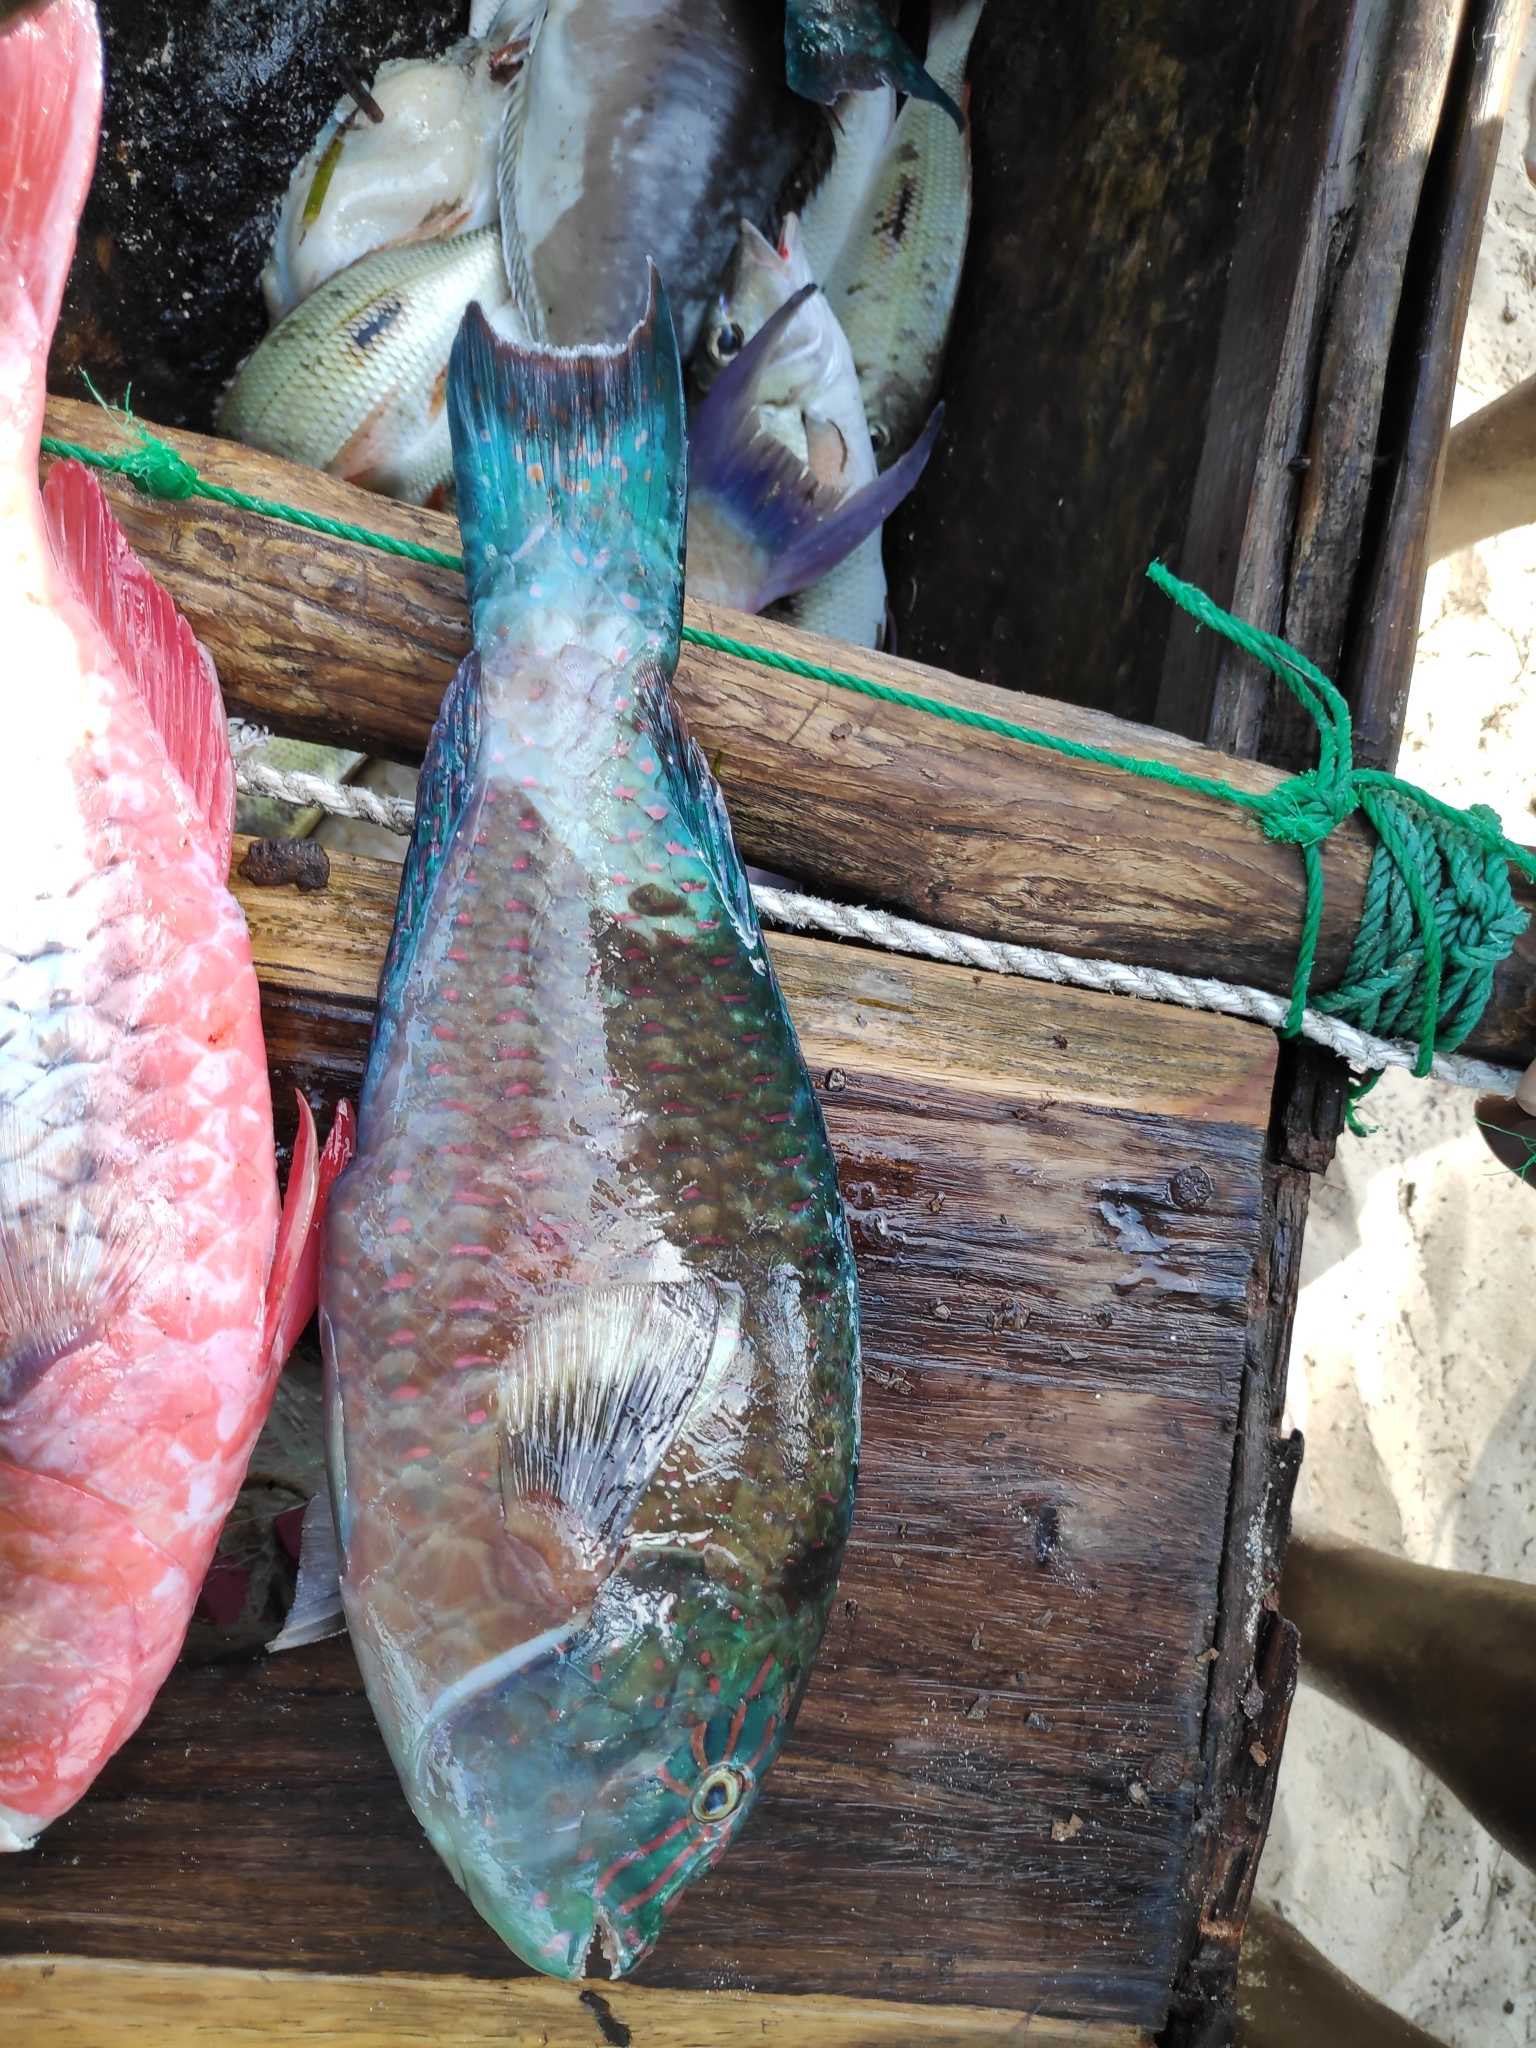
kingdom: Animalia
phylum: Chordata
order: Perciformes
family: Scaridae
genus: Calotomus
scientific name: Calotomus carolinus
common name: Bucktooth
